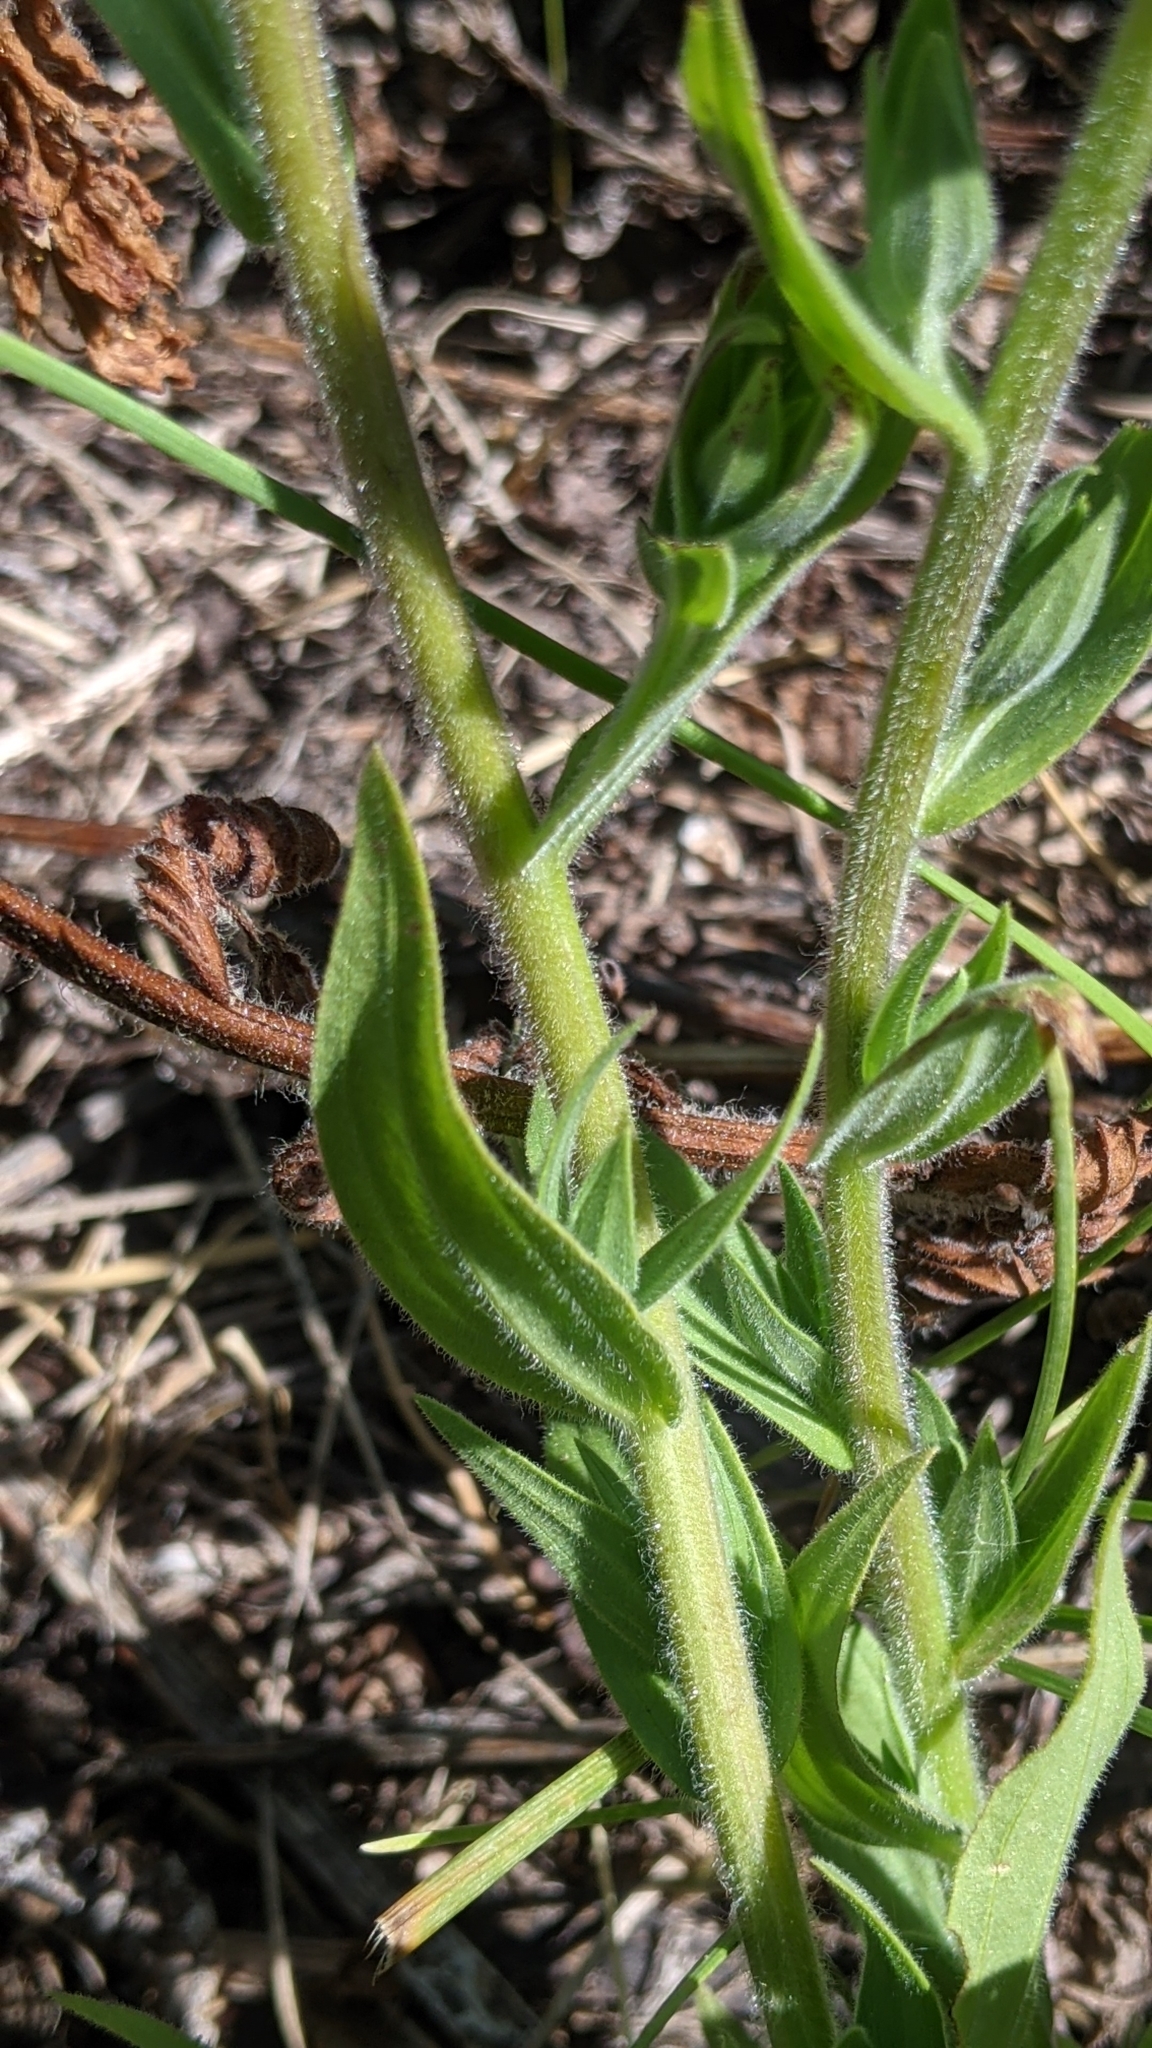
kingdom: Plantae
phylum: Tracheophyta
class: Magnoliopsida
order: Lamiales
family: Orobanchaceae
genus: Castilleja
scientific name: Castilleja miniata
